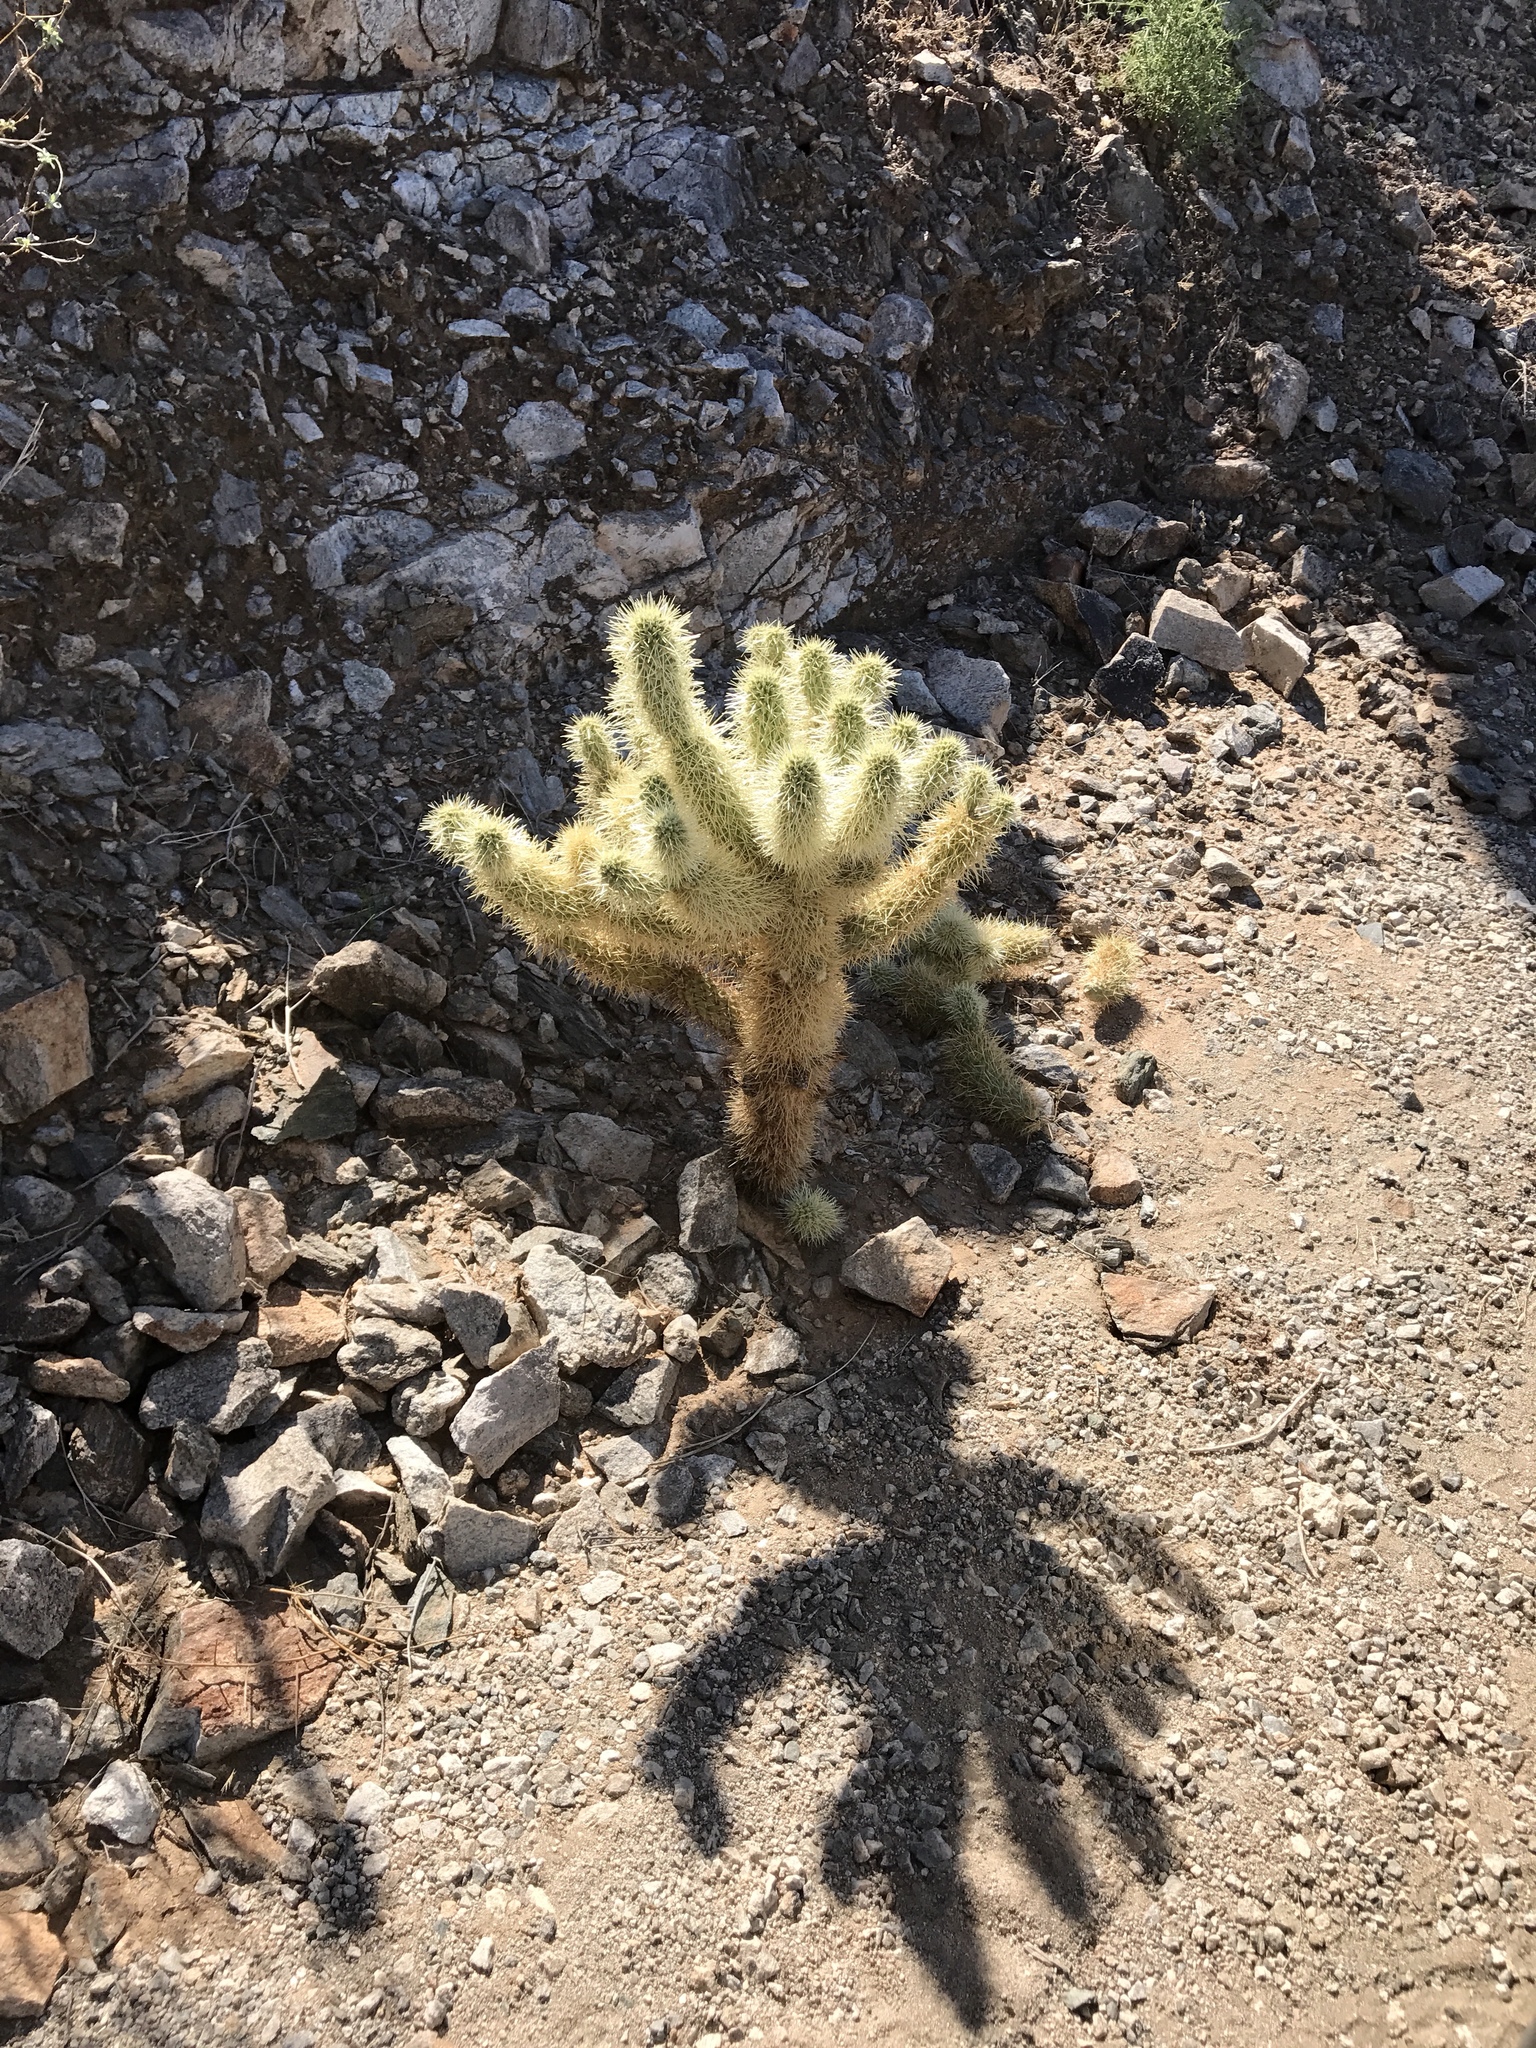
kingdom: Plantae
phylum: Tracheophyta
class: Magnoliopsida
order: Caryophyllales
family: Cactaceae
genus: Cylindropuntia
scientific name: Cylindropuntia fosbergii
